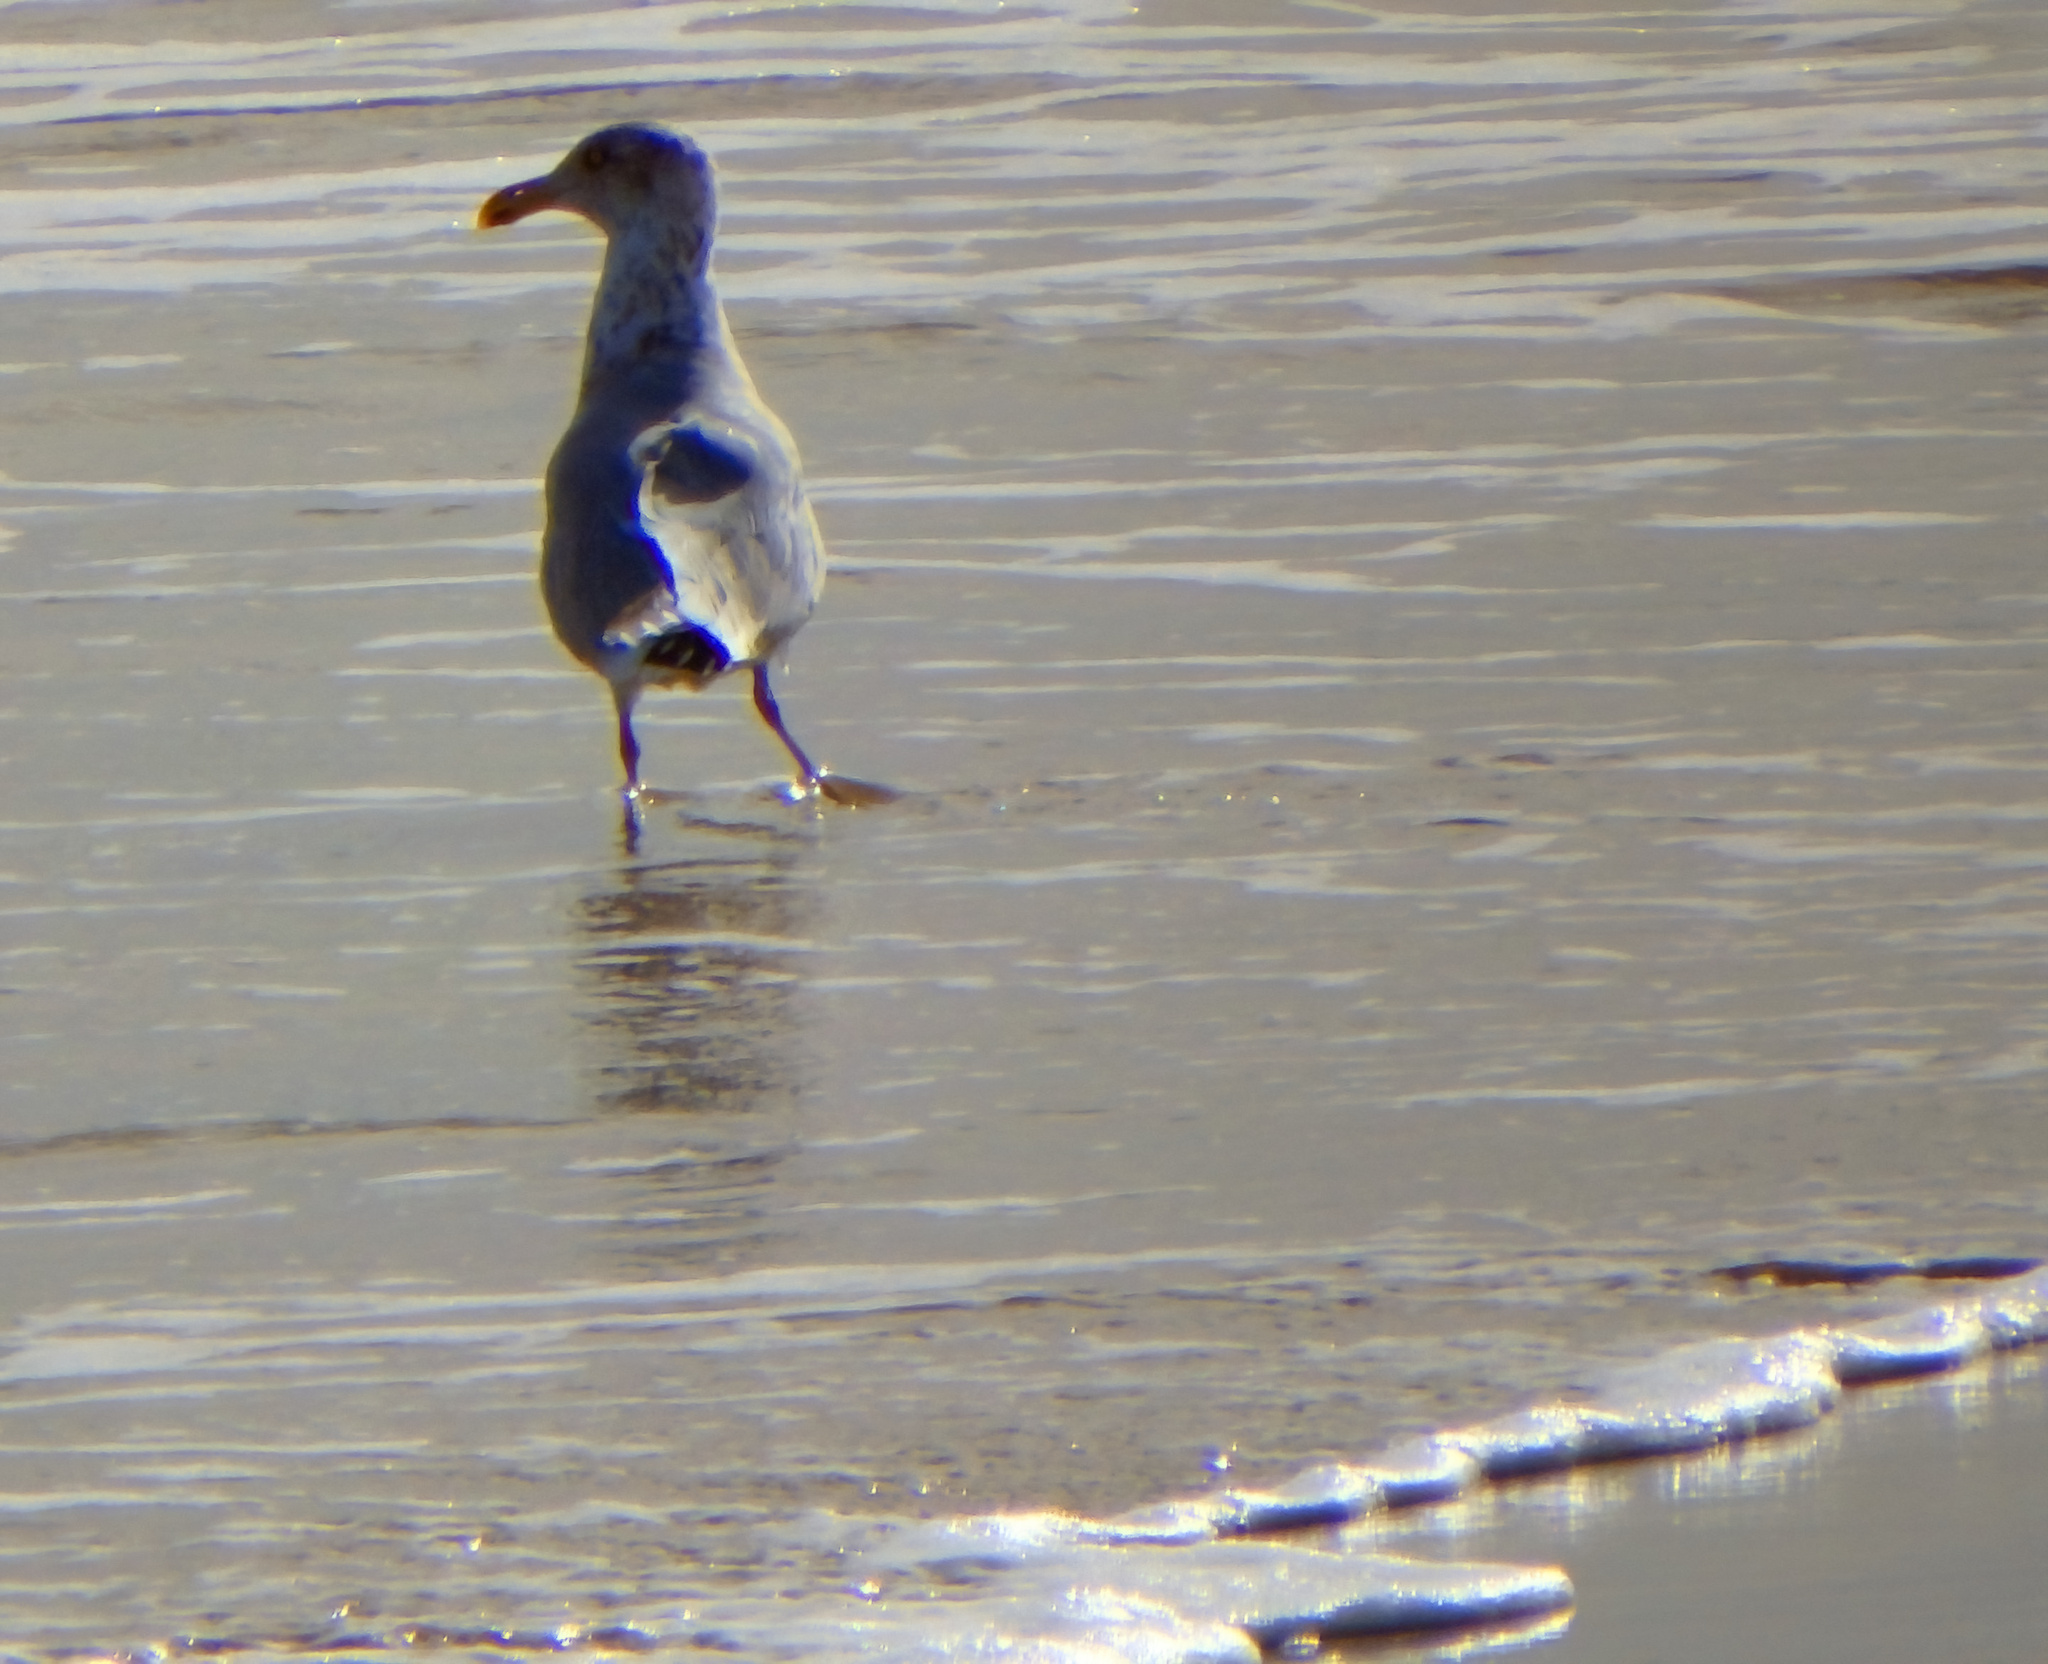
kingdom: Animalia
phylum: Chordata
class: Aves
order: Charadriiformes
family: Laridae
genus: Larus
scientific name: Larus argentatus
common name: Herring gull
